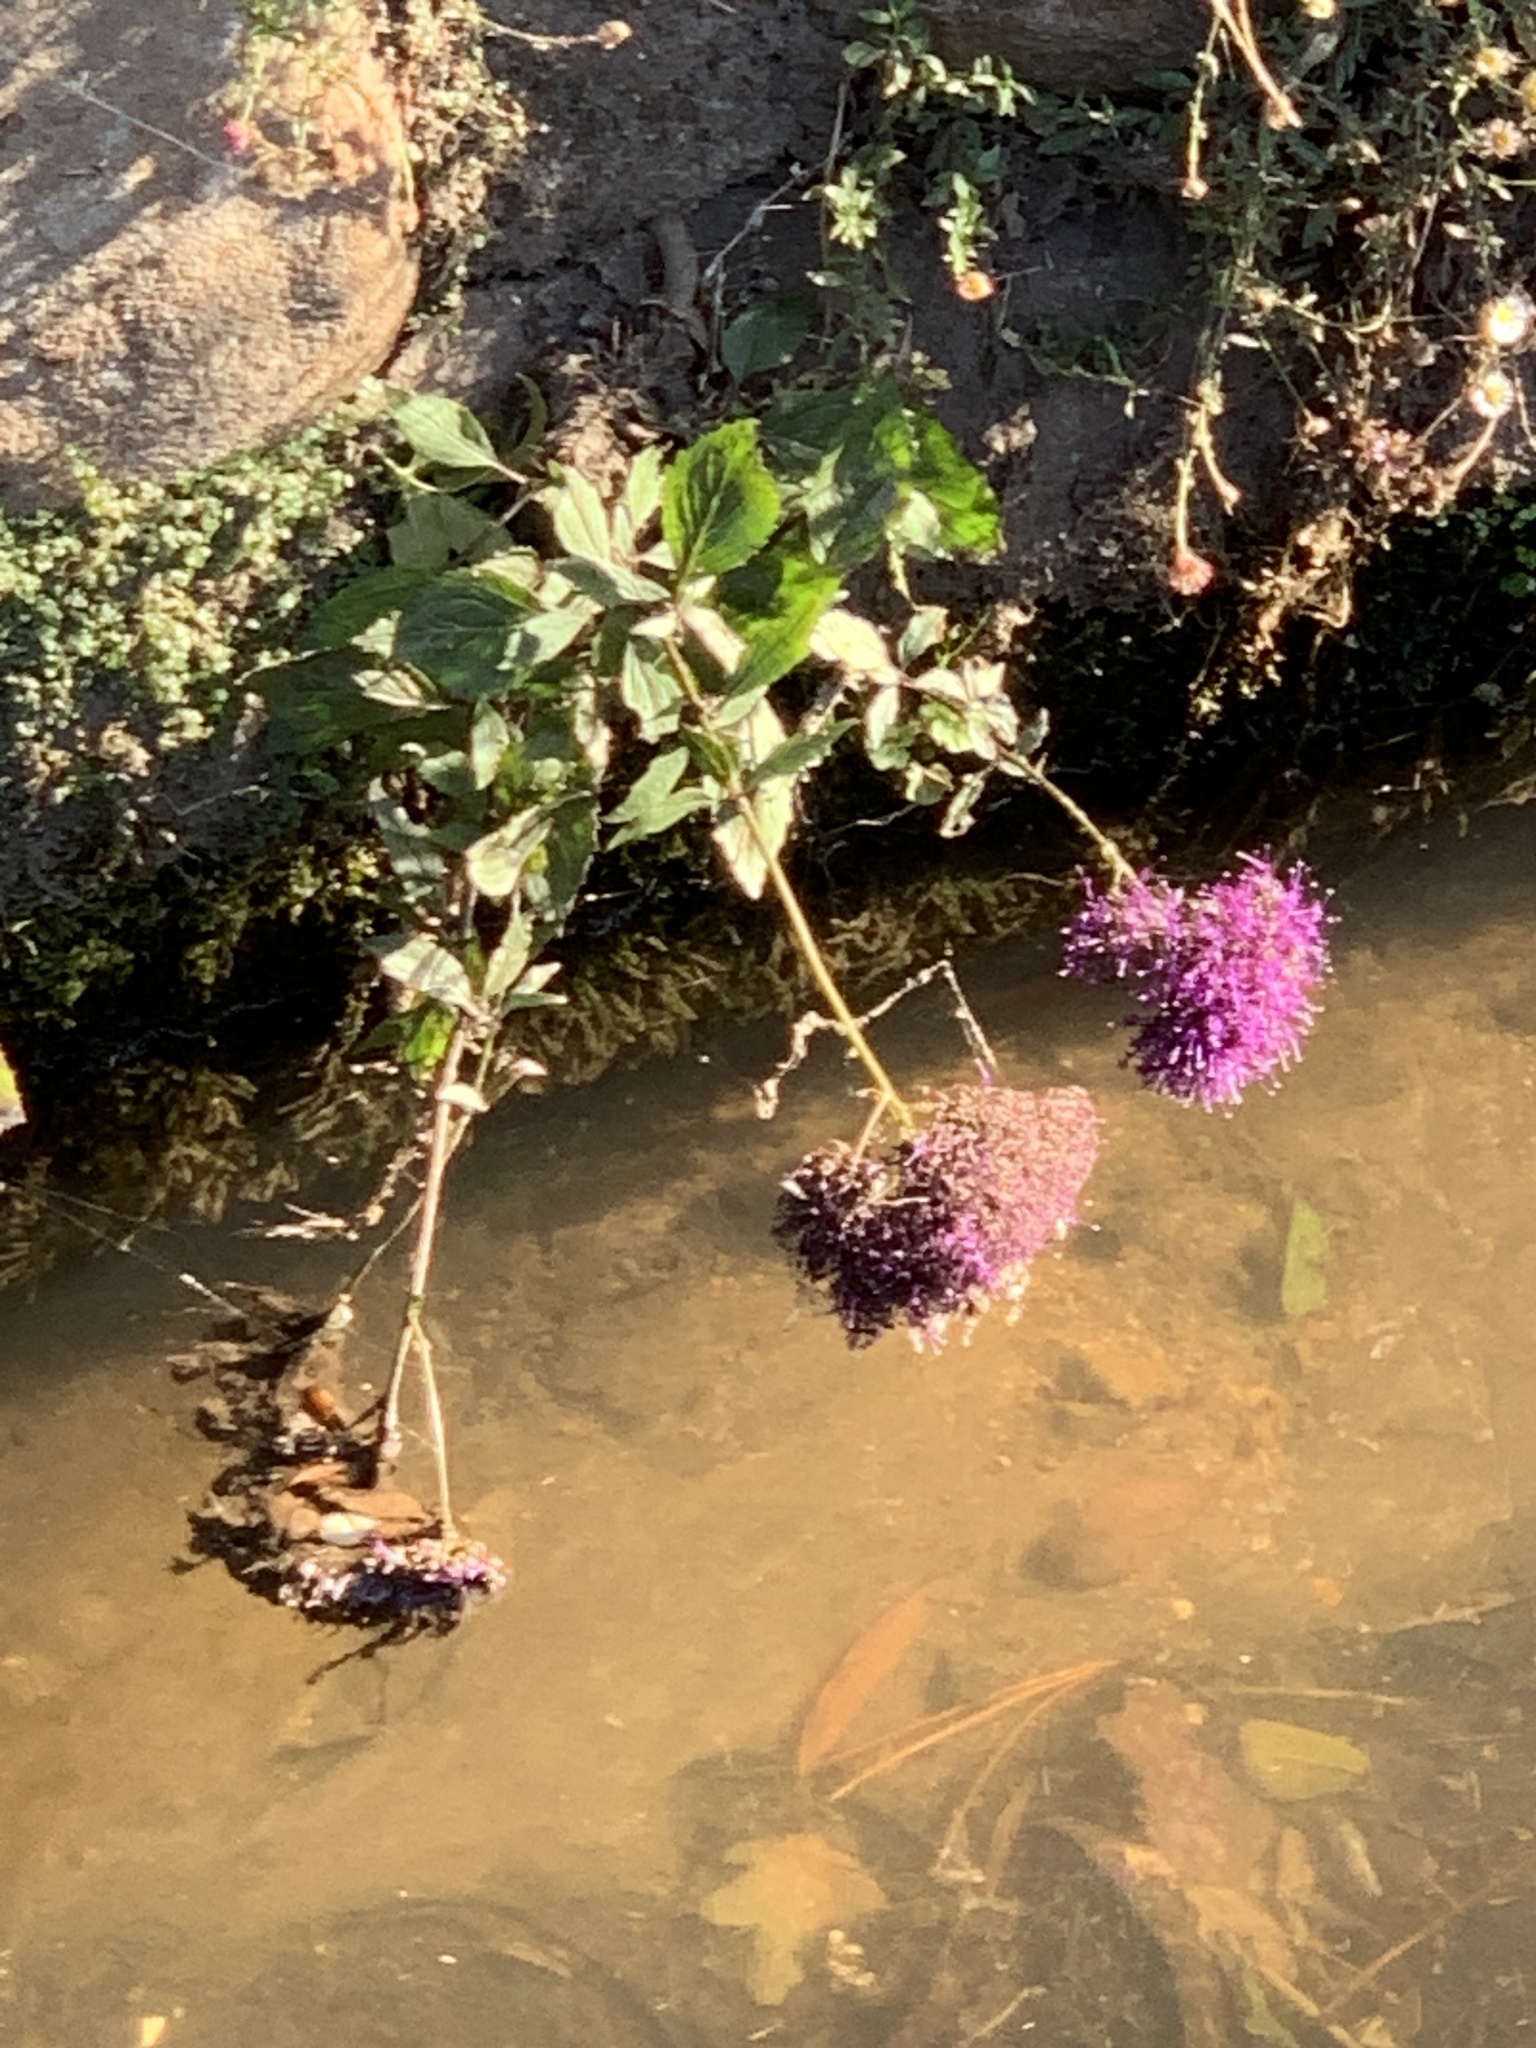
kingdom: Plantae
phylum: Tracheophyta
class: Magnoliopsida
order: Asterales
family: Campanulaceae
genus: Trachelium
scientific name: Trachelium caeruleum
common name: Throatwort
